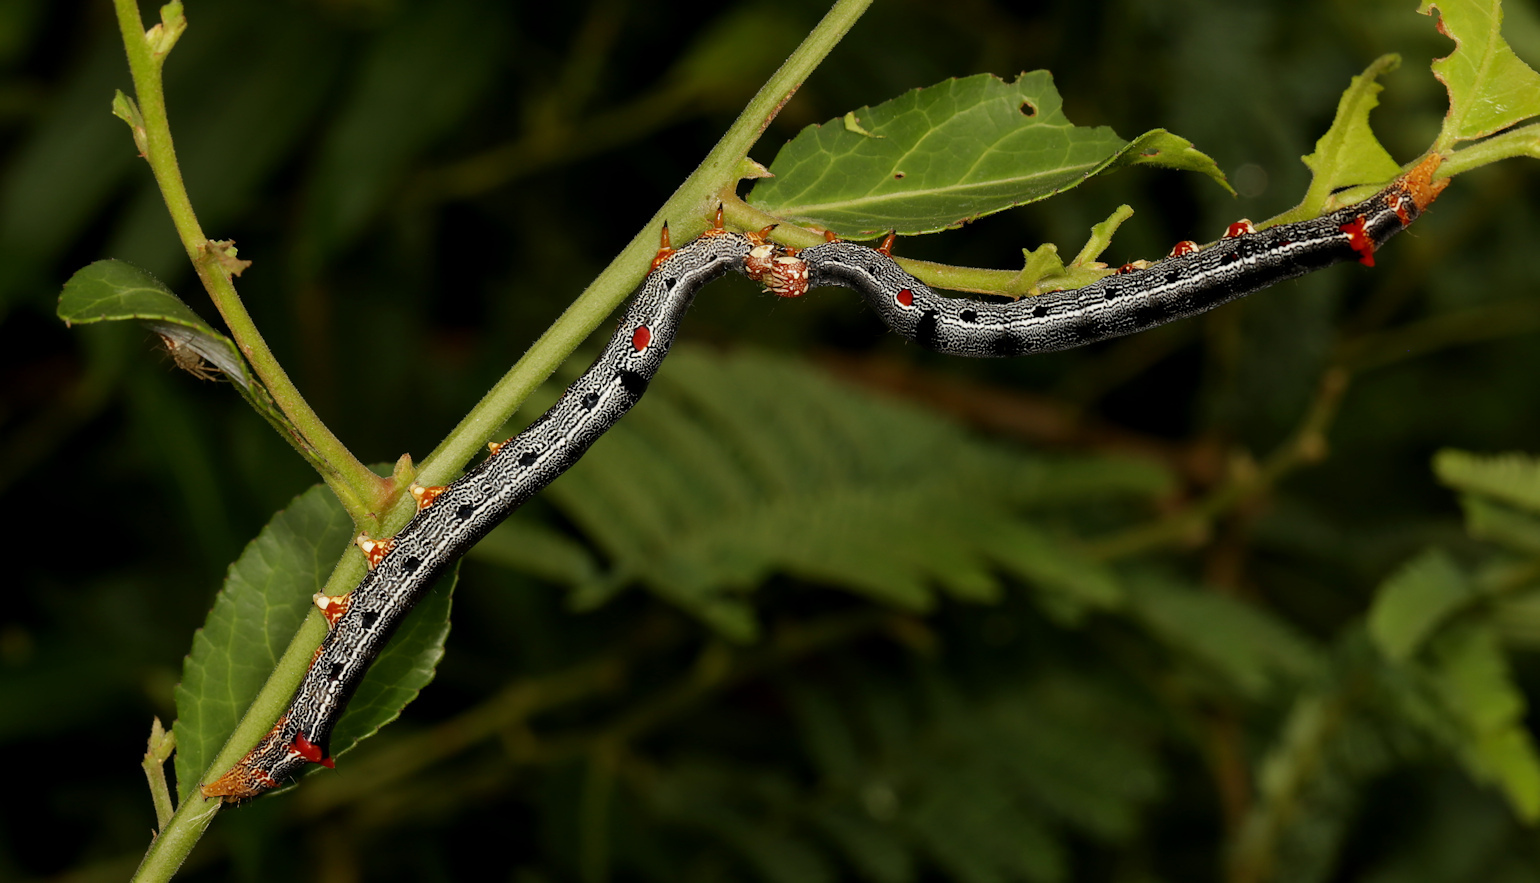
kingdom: Animalia
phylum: Arthropoda
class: Insecta
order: Lepidoptera
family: Erebidae
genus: Achaea
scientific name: Achaea lienardi
